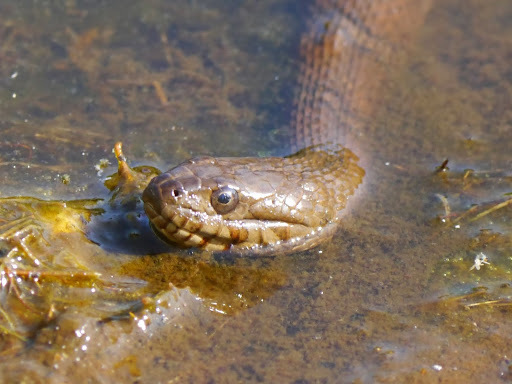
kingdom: Animalia
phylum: Chordata
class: Squamata
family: Colubridae
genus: Nerodia
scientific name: Nerodia sipedon
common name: Northern water snake
